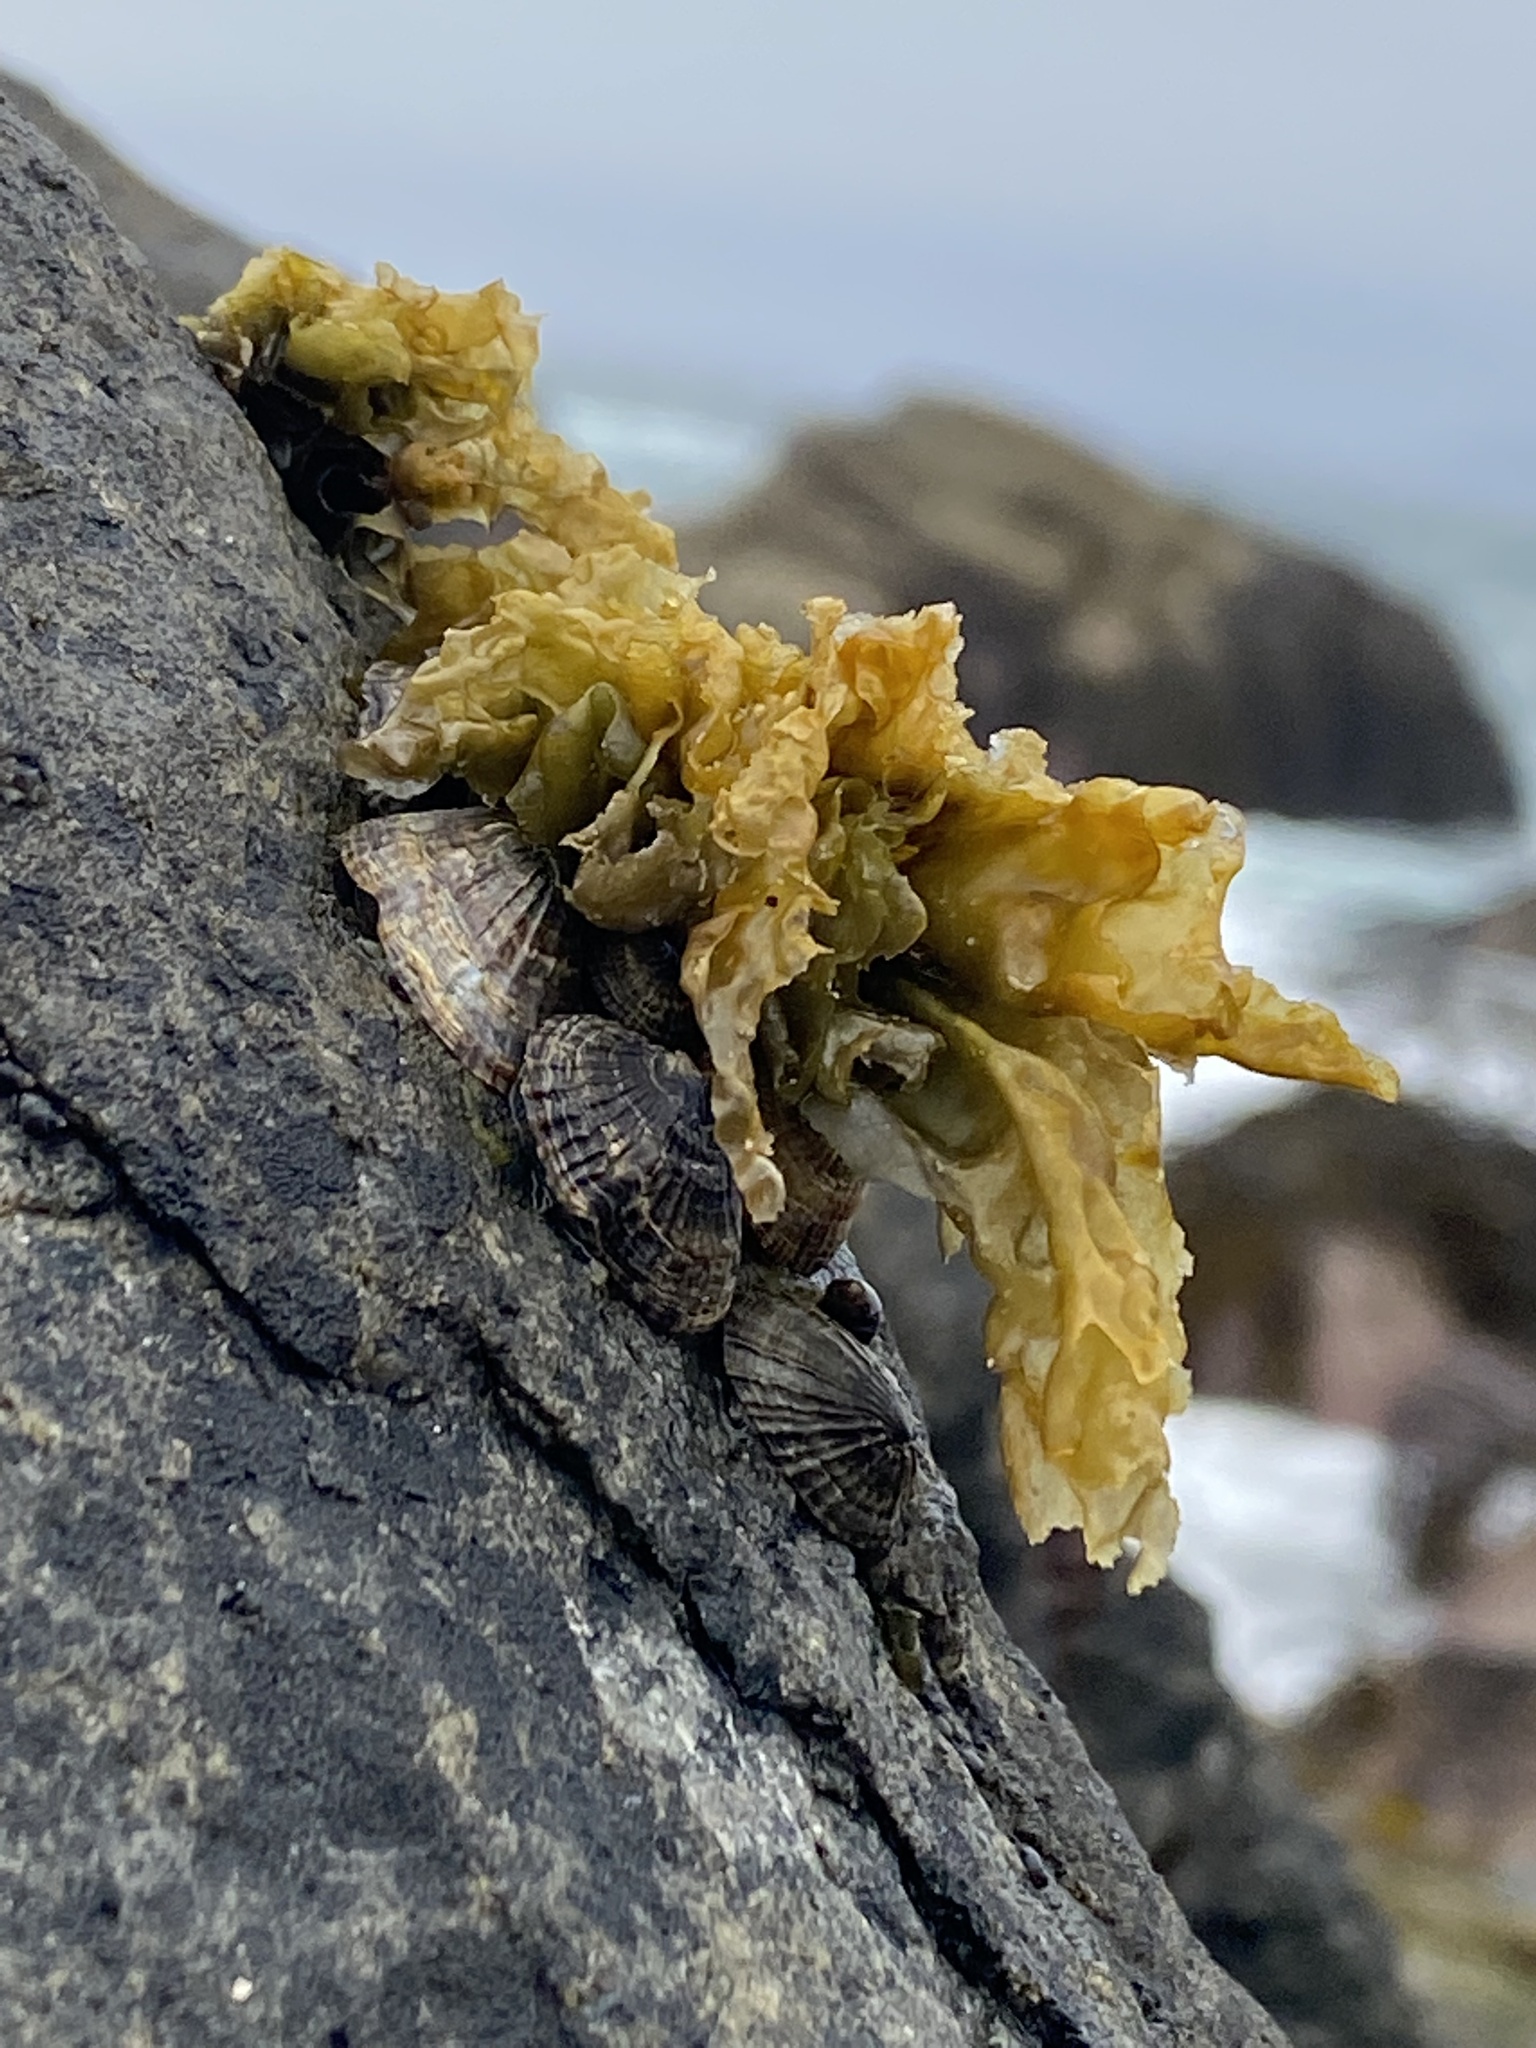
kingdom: Animalia
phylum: Mollusca
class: Gastropoda
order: Siphonariida
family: Siphonariidae
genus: Siphonaria
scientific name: Siphonaria lessonii
